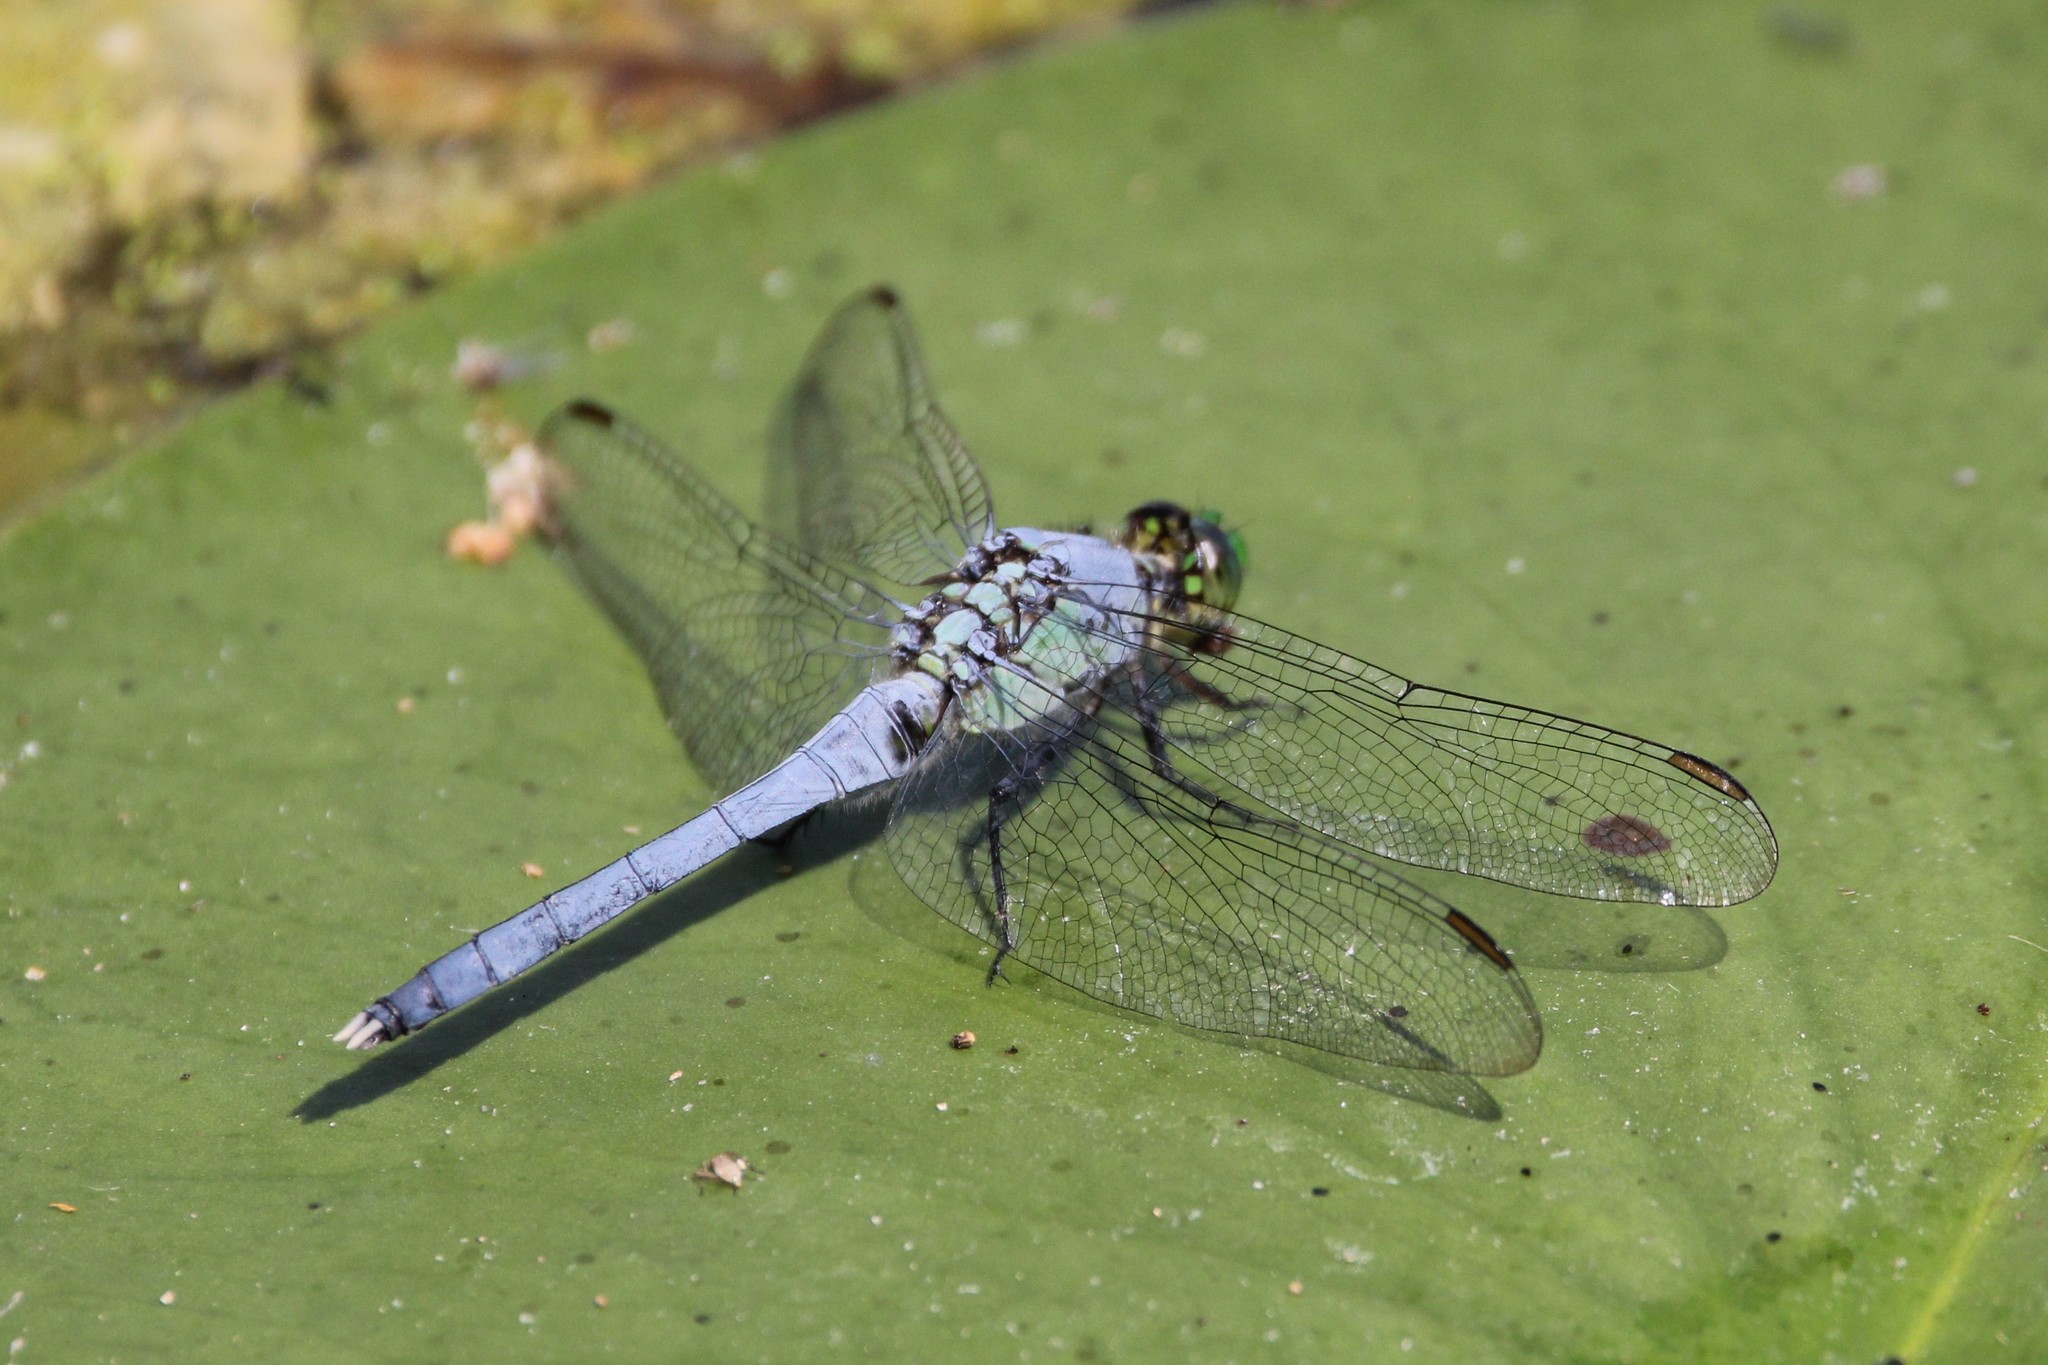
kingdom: Animalia
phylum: Arthropoda
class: Insecta
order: Odonata
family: Libellulidae
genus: Erythemis
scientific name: Erythemis simplicicollis
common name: Eastern pondhawk
